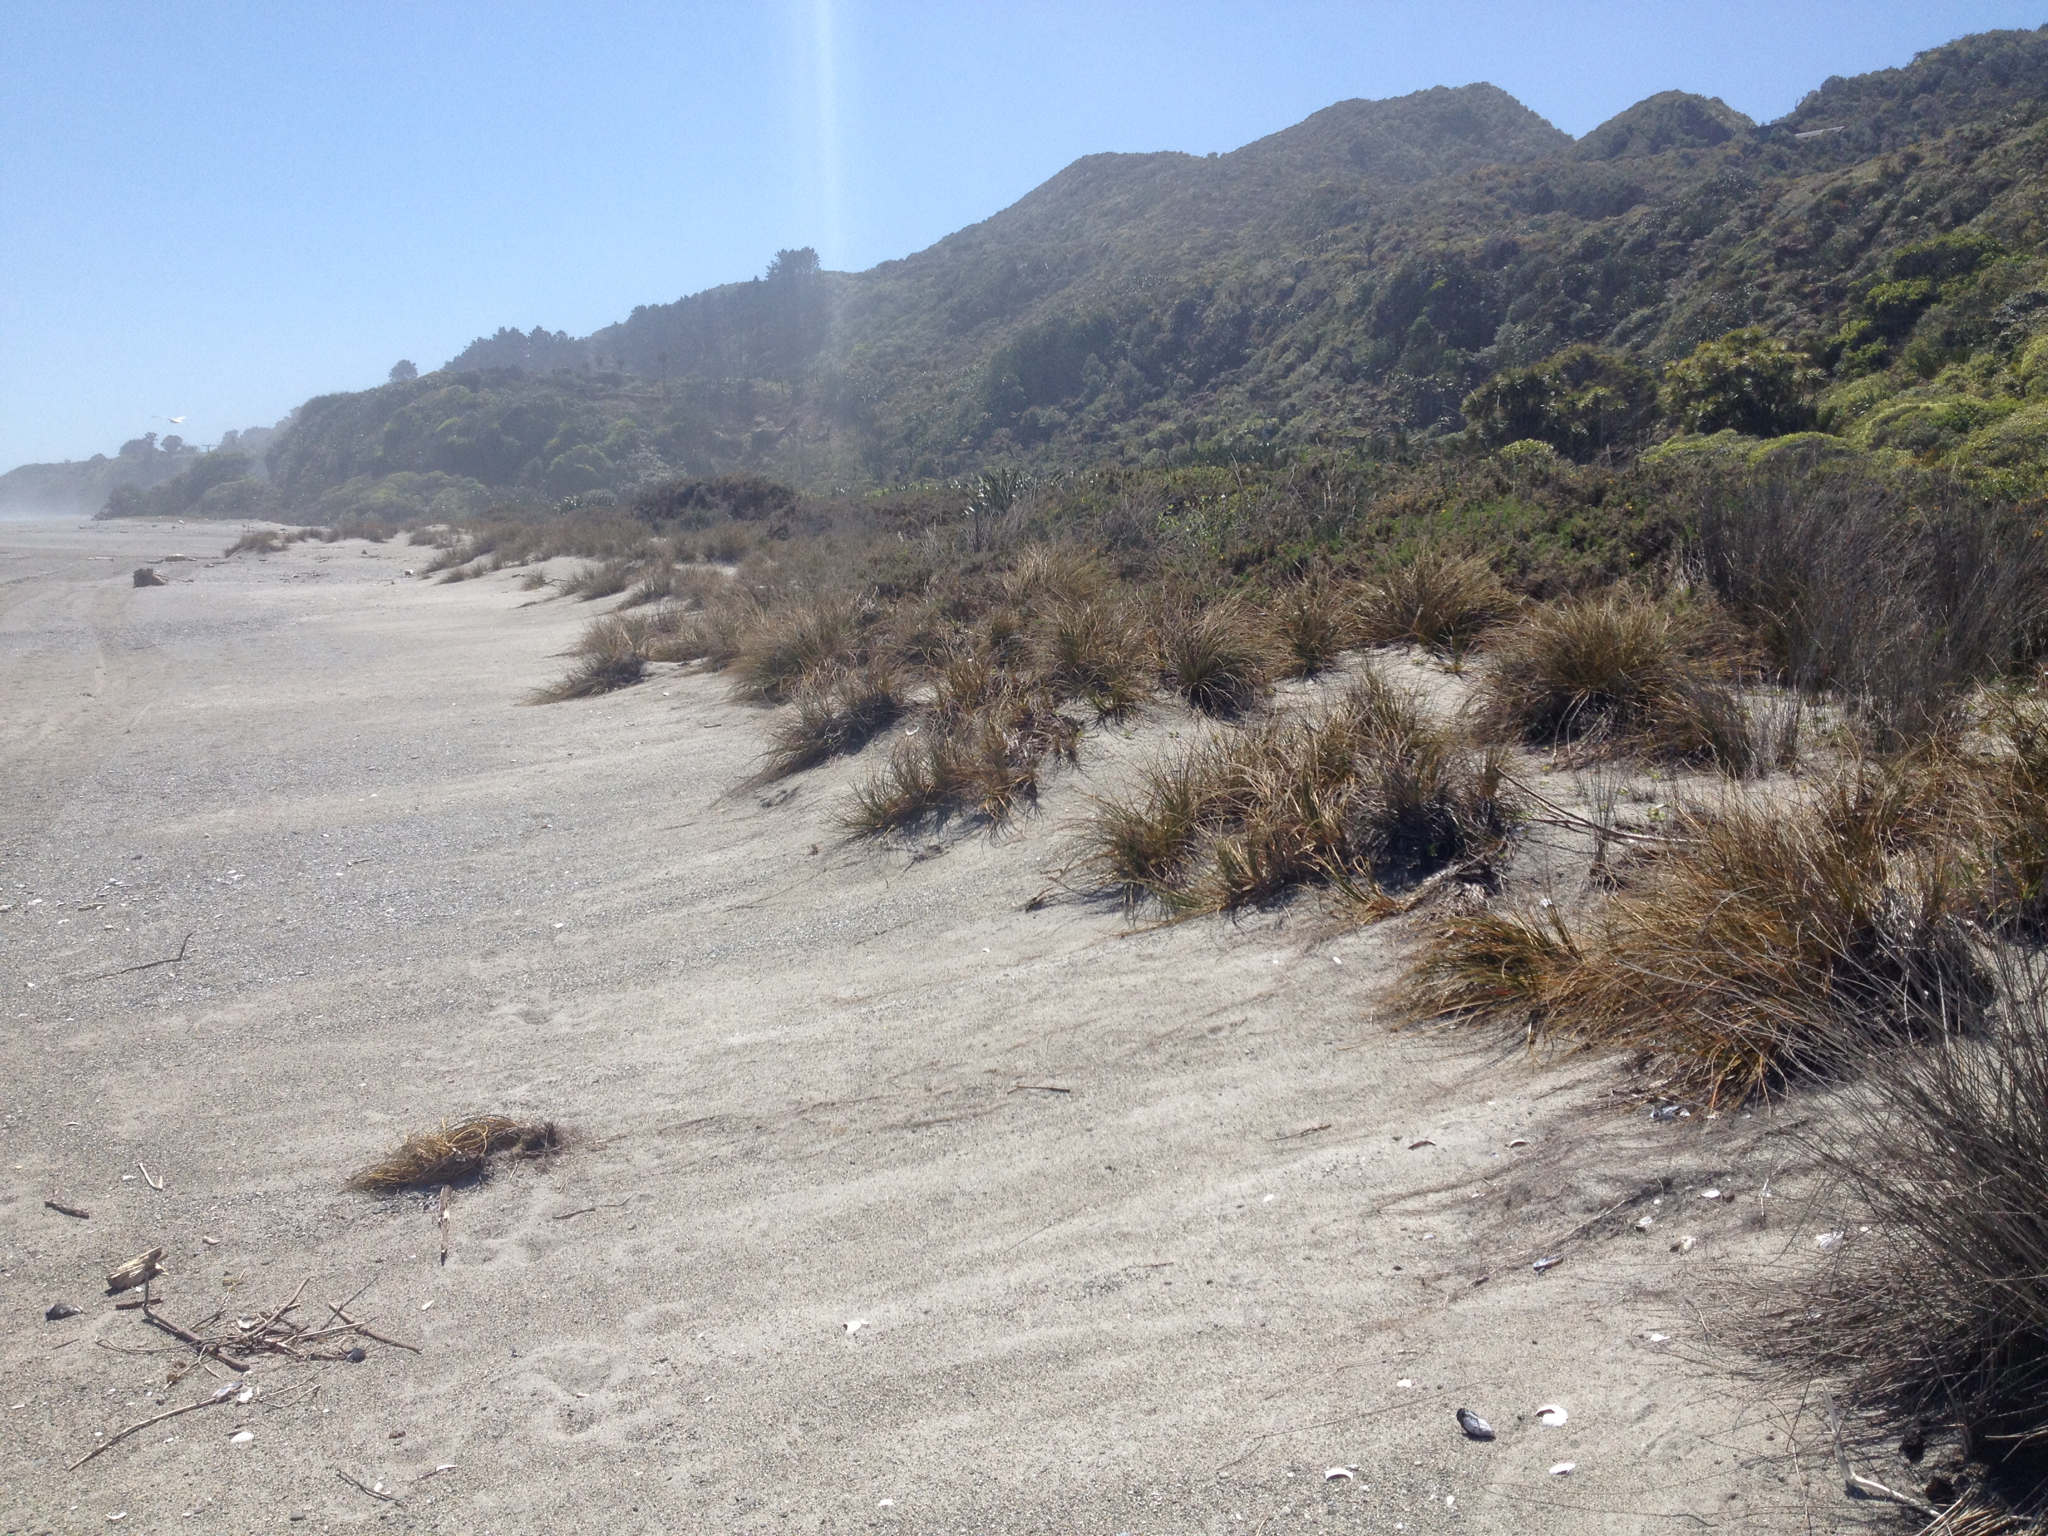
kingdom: Plantae
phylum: Tracheophyta
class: Liliopsida
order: Poales
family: Cyperaceae
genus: Ficinia
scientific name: Ficinia spiralis
